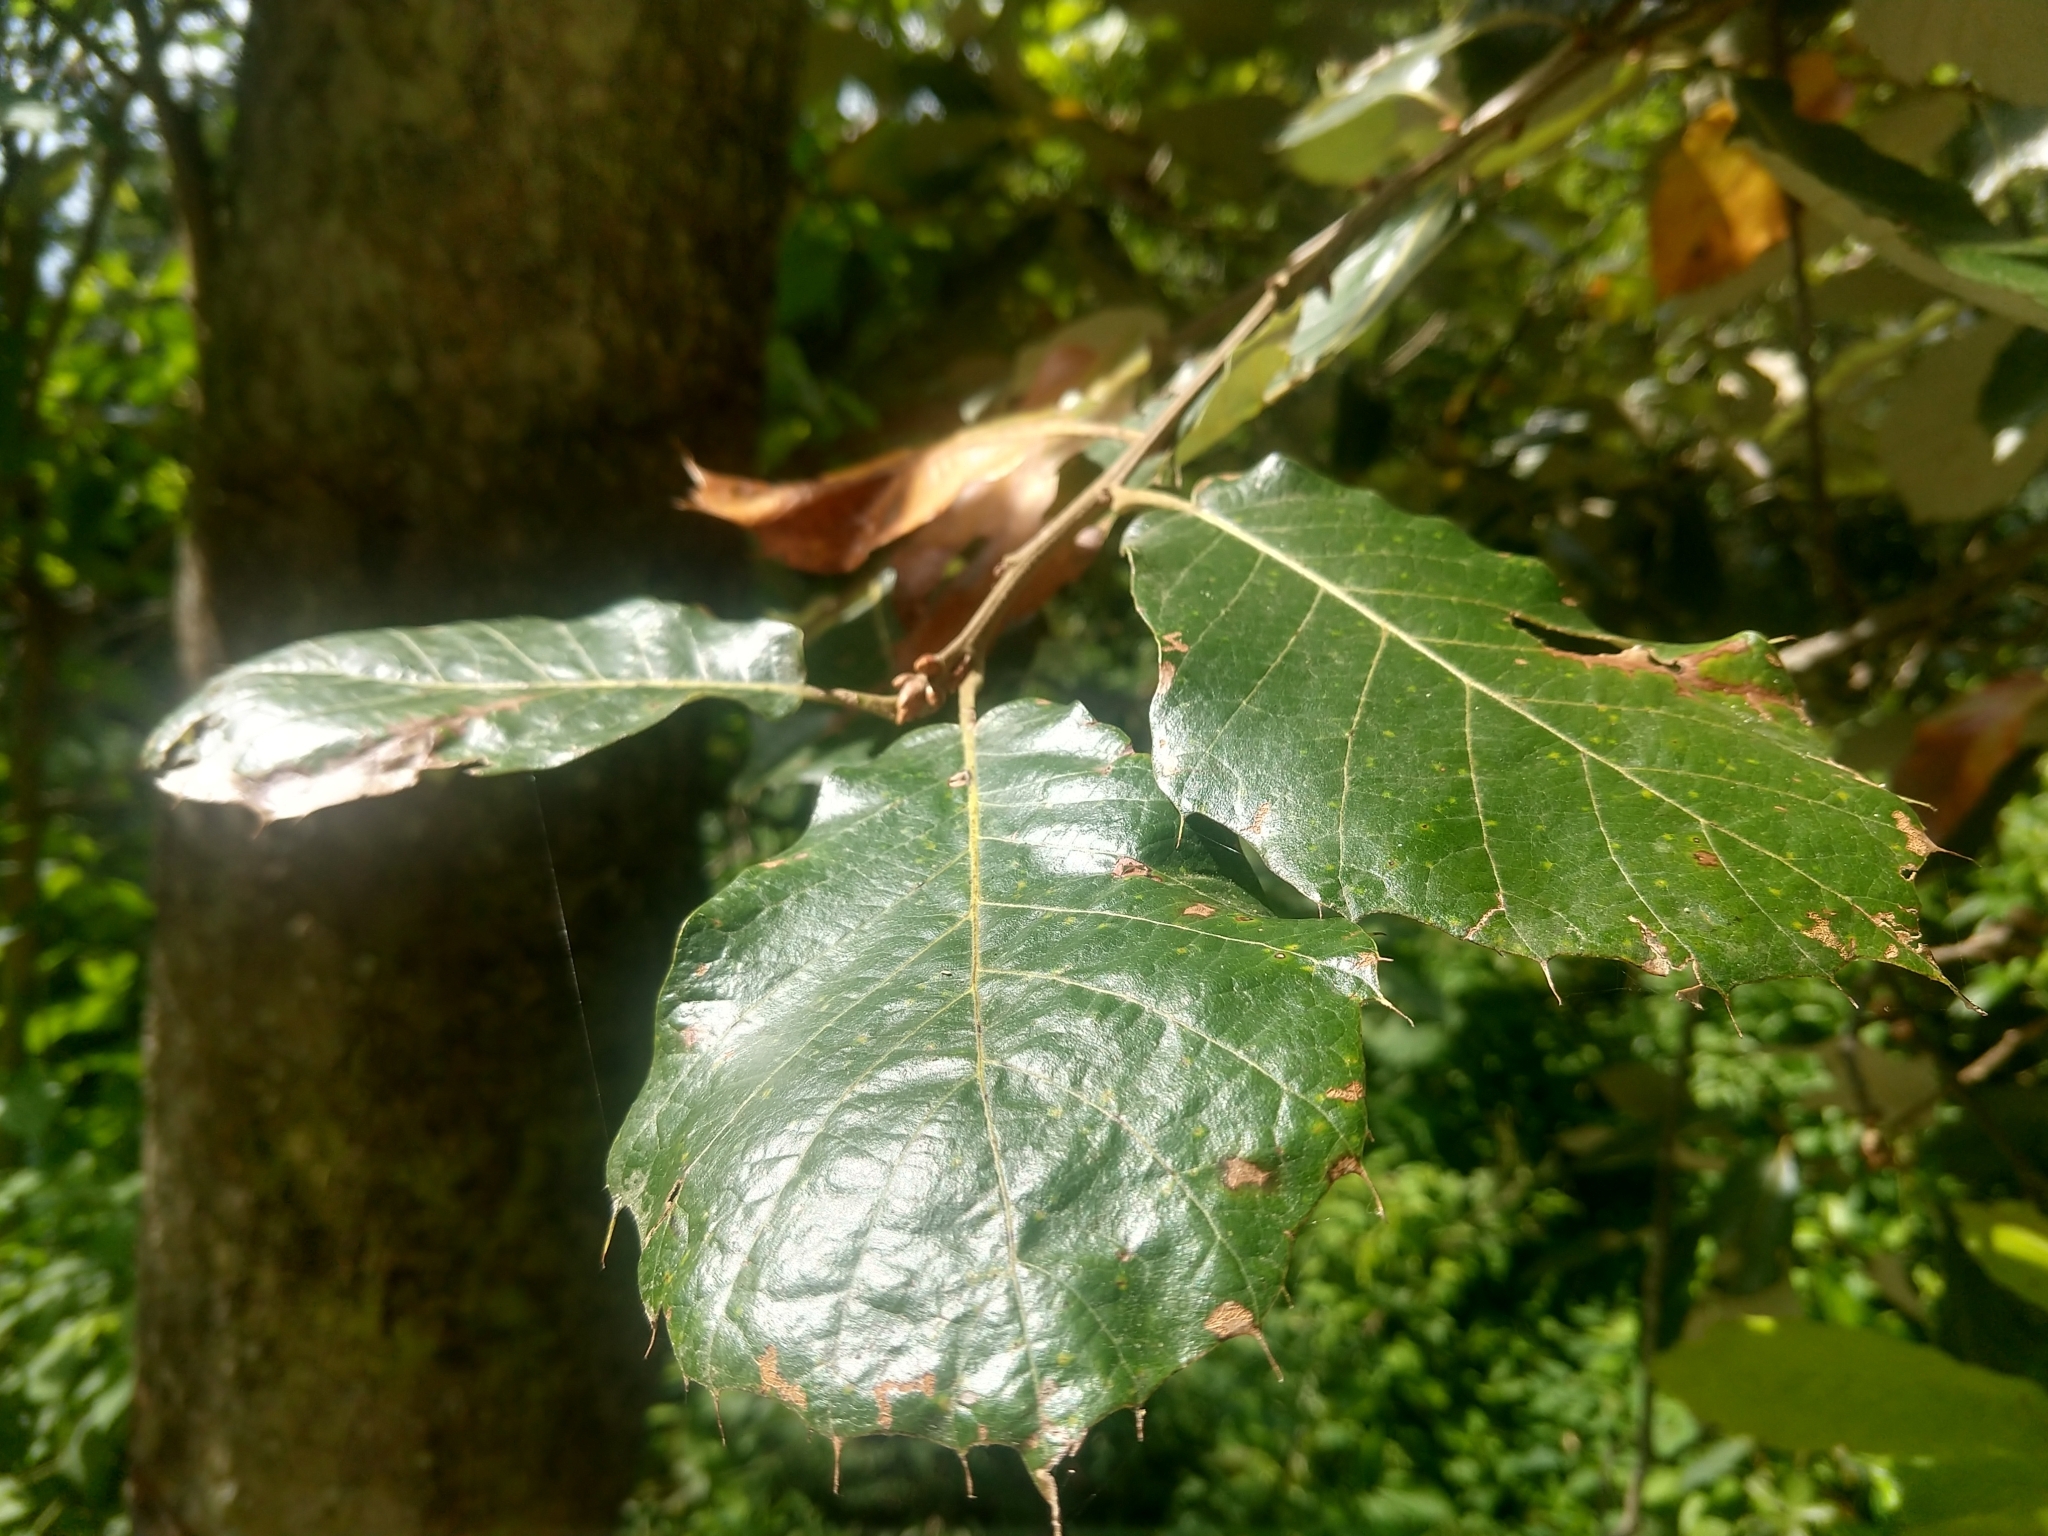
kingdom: Plantae
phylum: Tracheophyta
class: Magnoliopsida
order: Fagales
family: Fagaceae
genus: Quercus
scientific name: Quercus calophylla
